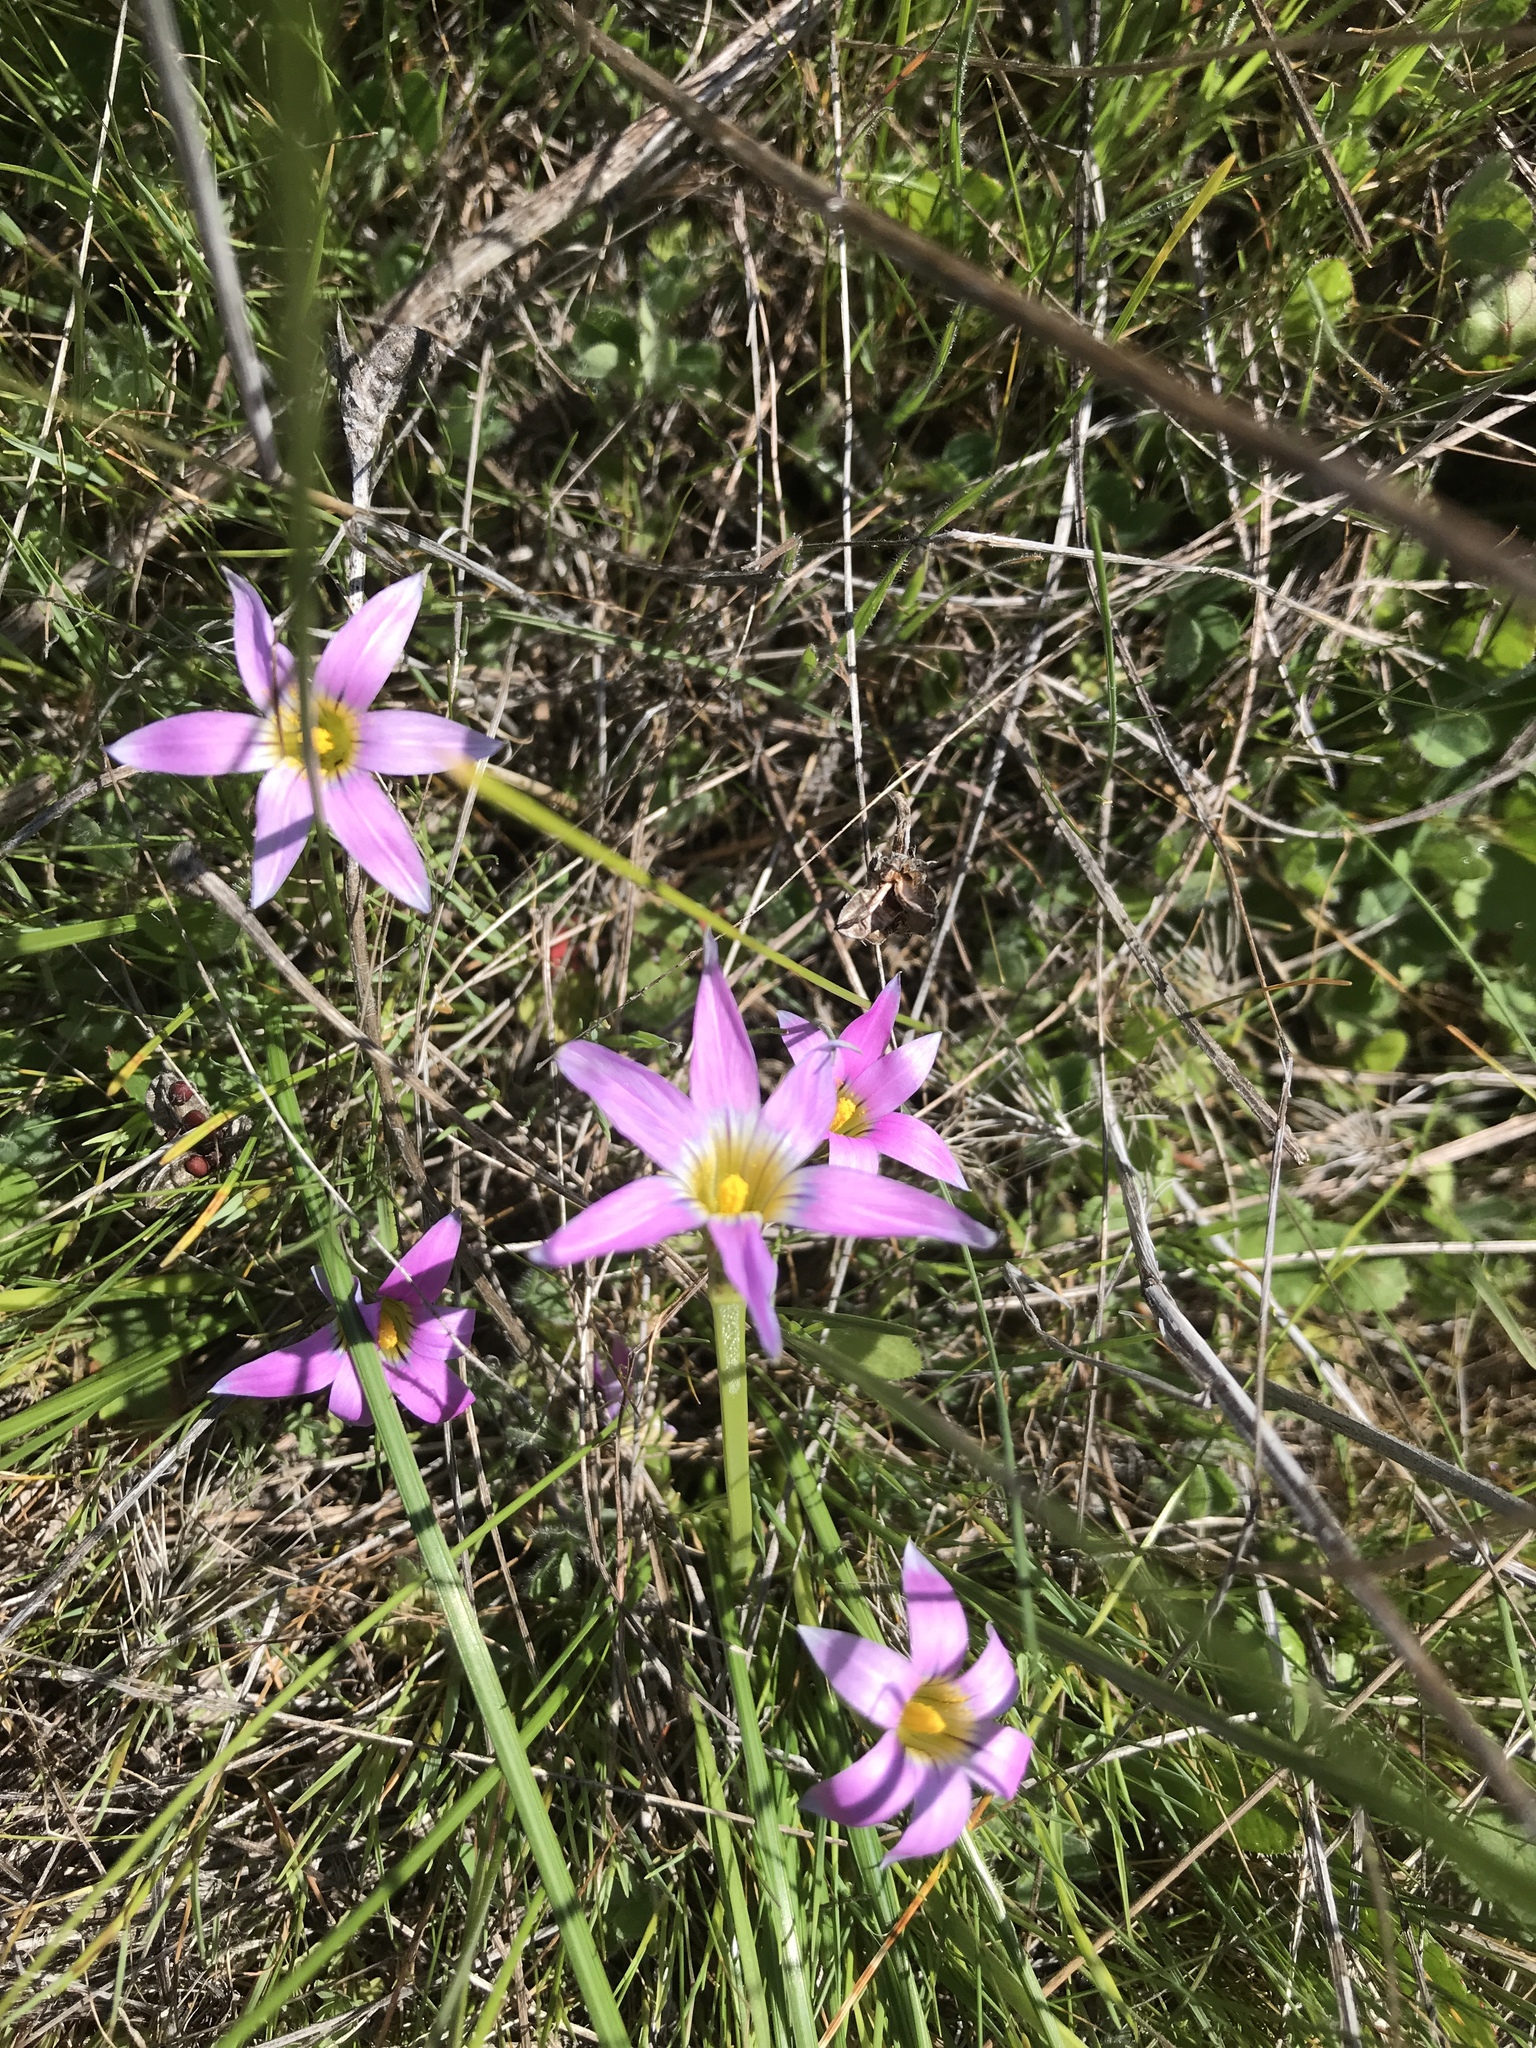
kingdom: Plantae
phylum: Tracheophyta
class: Liliopsida
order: Asparagales
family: Iridaceae
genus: Romulea
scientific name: Romulea rosea
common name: Oniongrass
